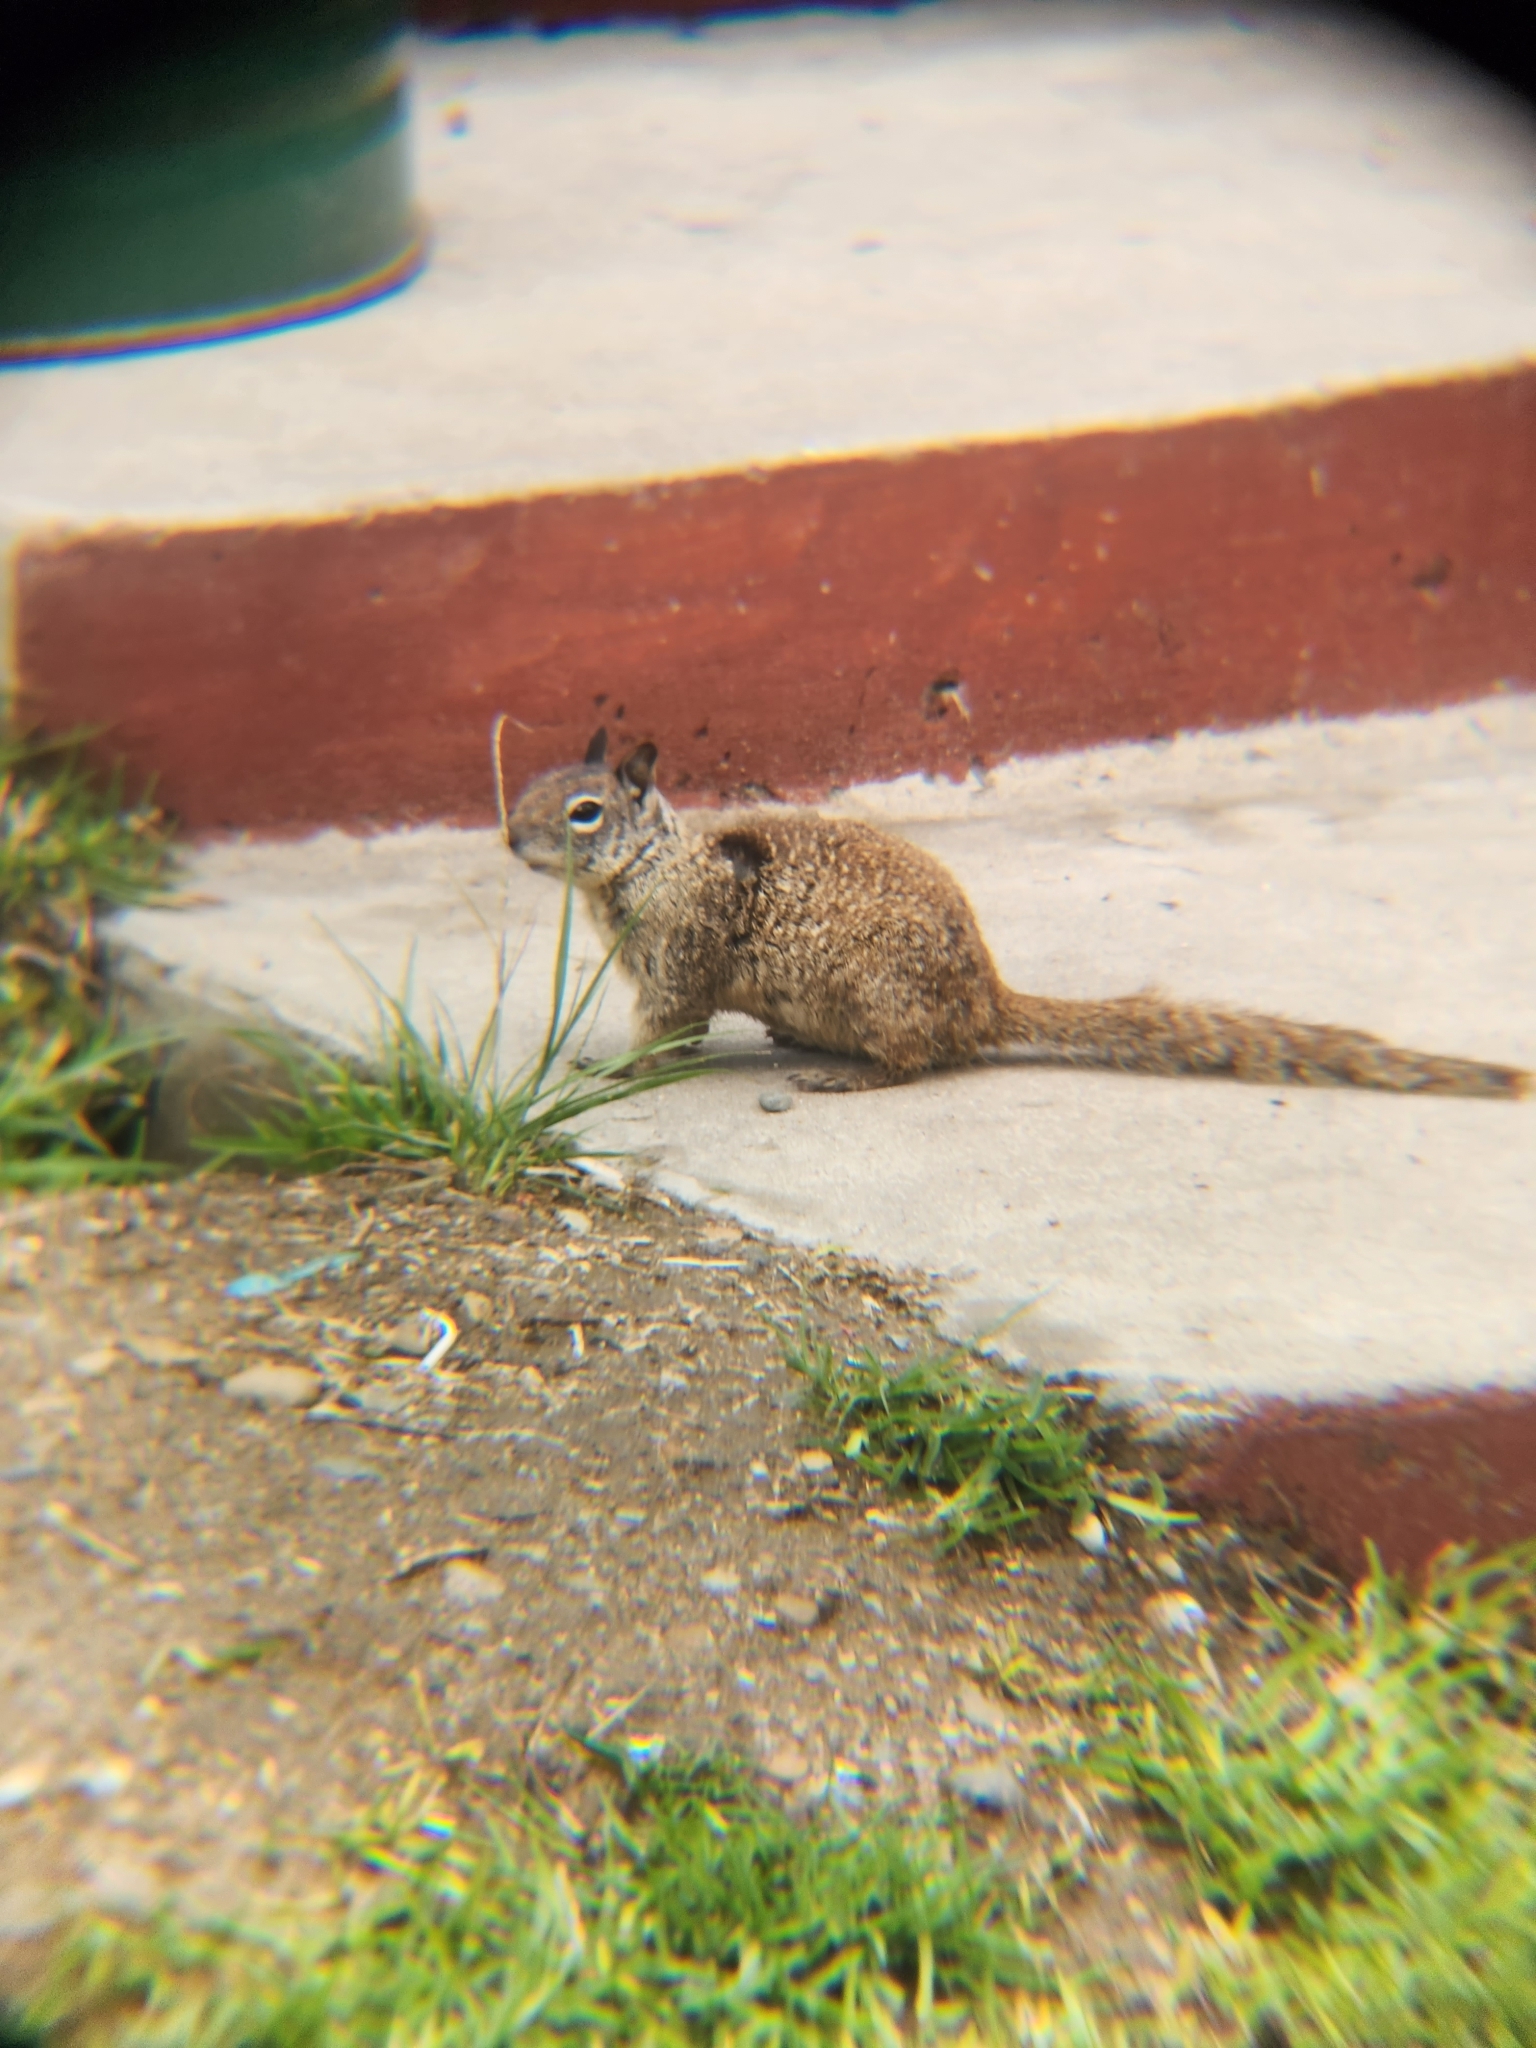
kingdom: Animalia
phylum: Chordata
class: Mammalia
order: Rodentia
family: Sciuridae
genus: Otospermophilus
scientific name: Otospermophilus beecheyi
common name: California ground squirrel
